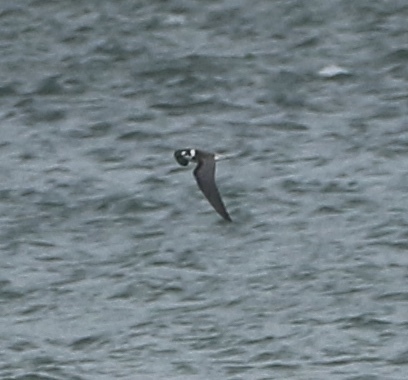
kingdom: Animalia
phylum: Chordata
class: Aves
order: Charadriiformes
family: Laridae
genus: Chlidonias
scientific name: Chlidonias niger
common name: Black tern
